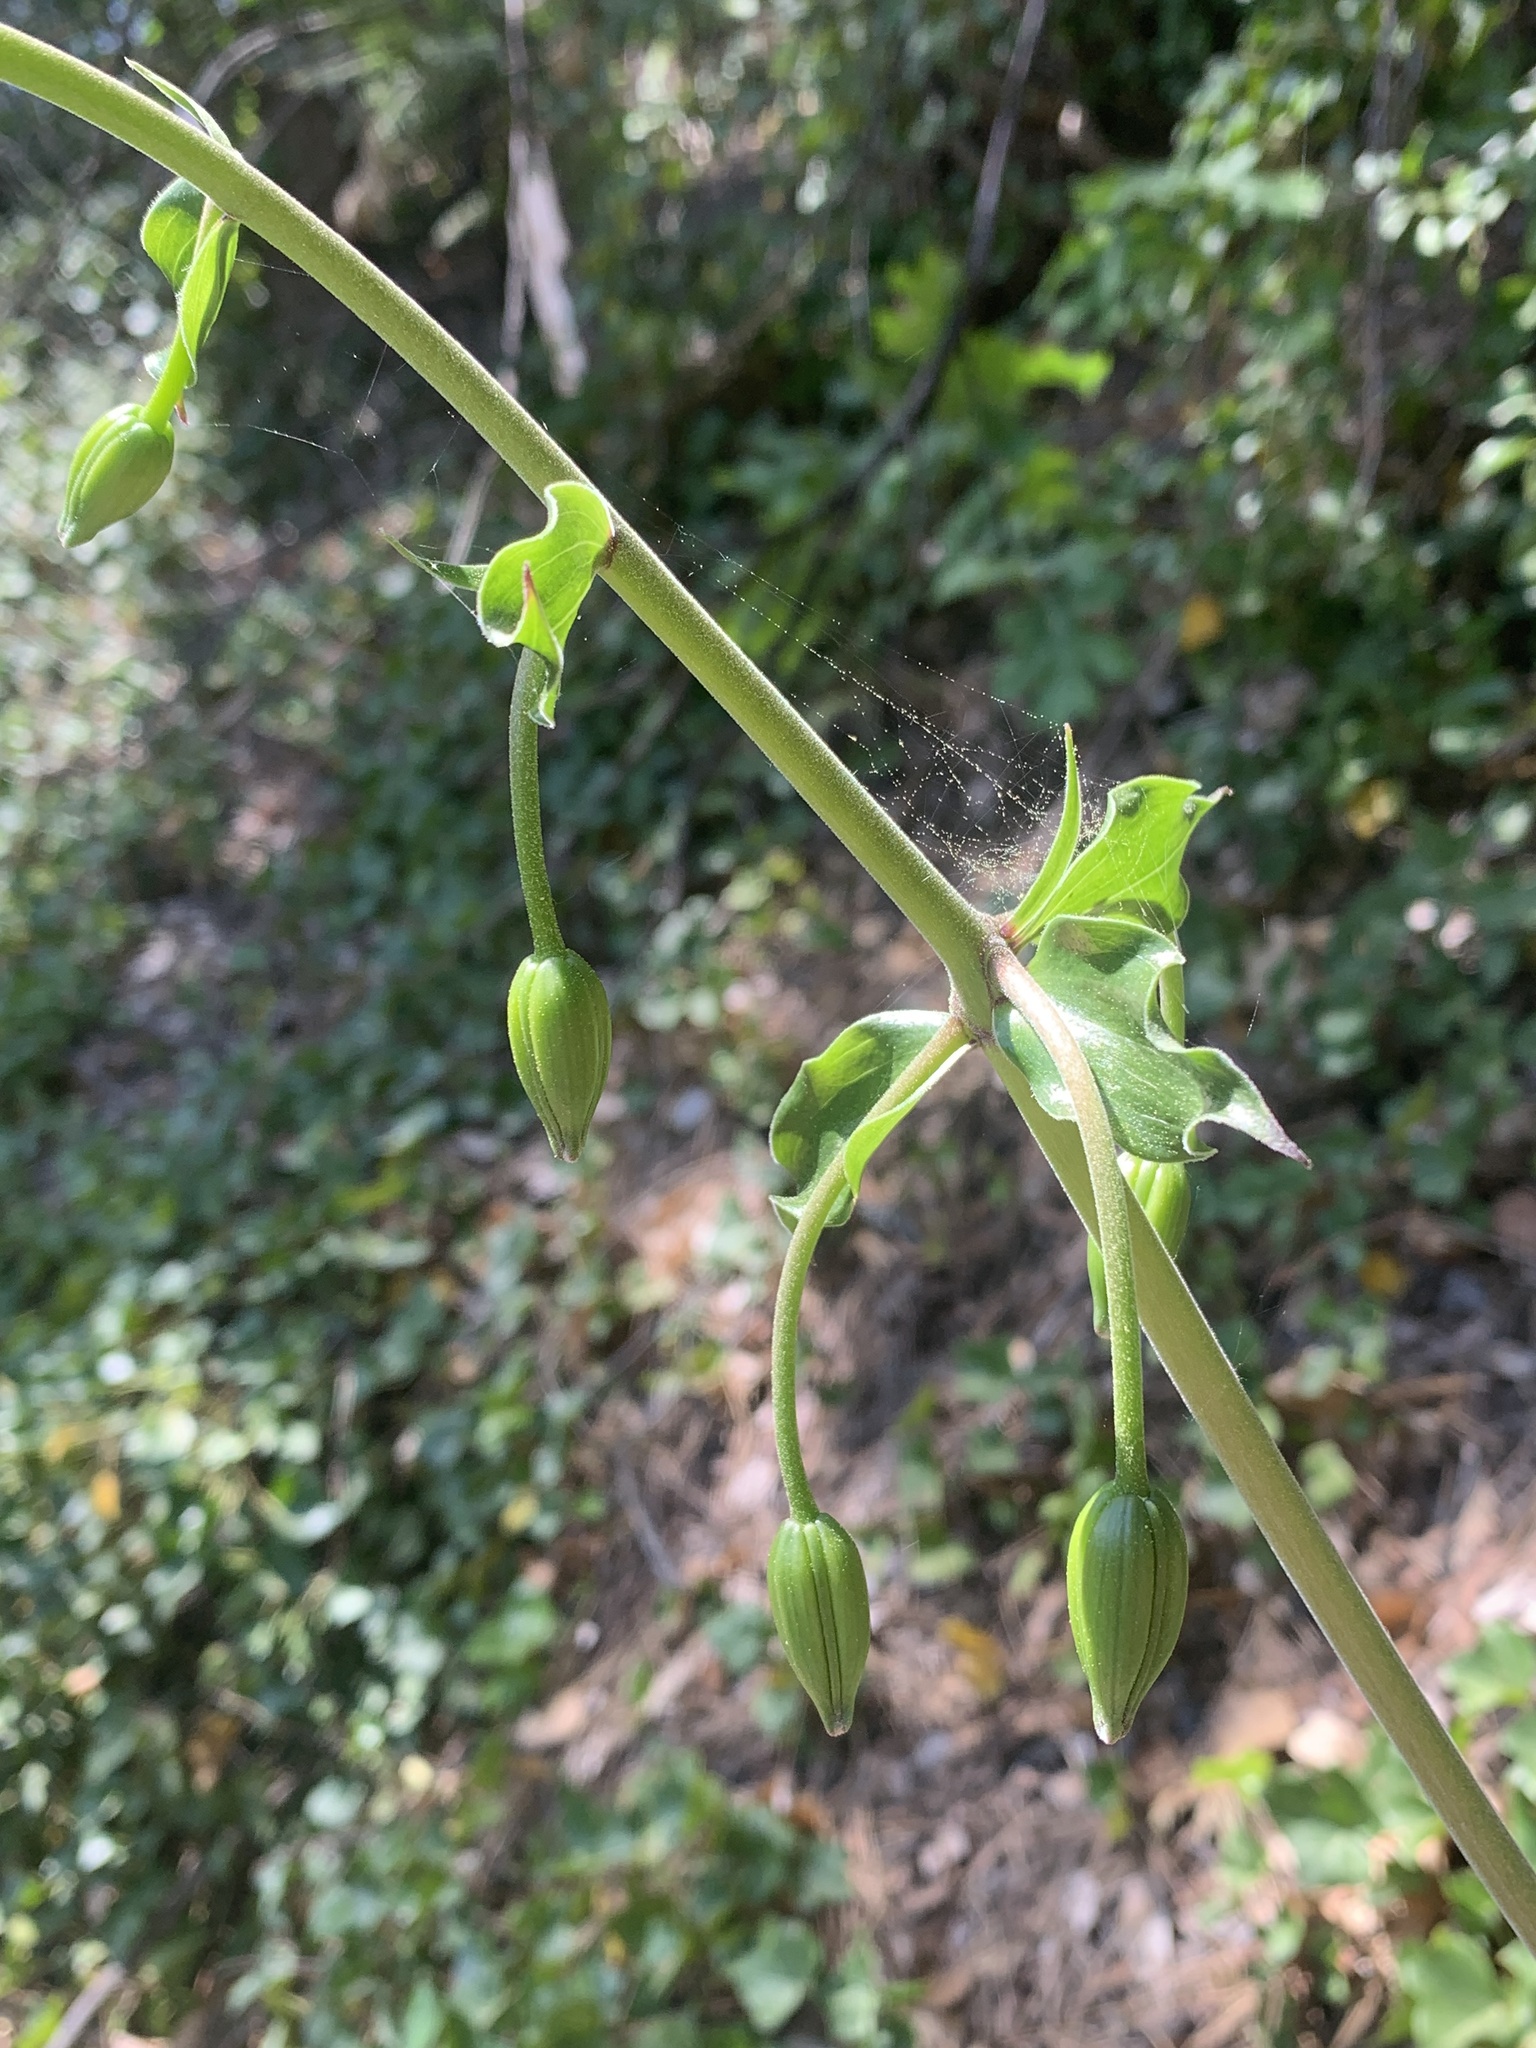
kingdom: Plantae
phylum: Tracheophyta
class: Liliopsida
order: Liliales
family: Liliaceae
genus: Lilium
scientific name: Lilium humboldtii
